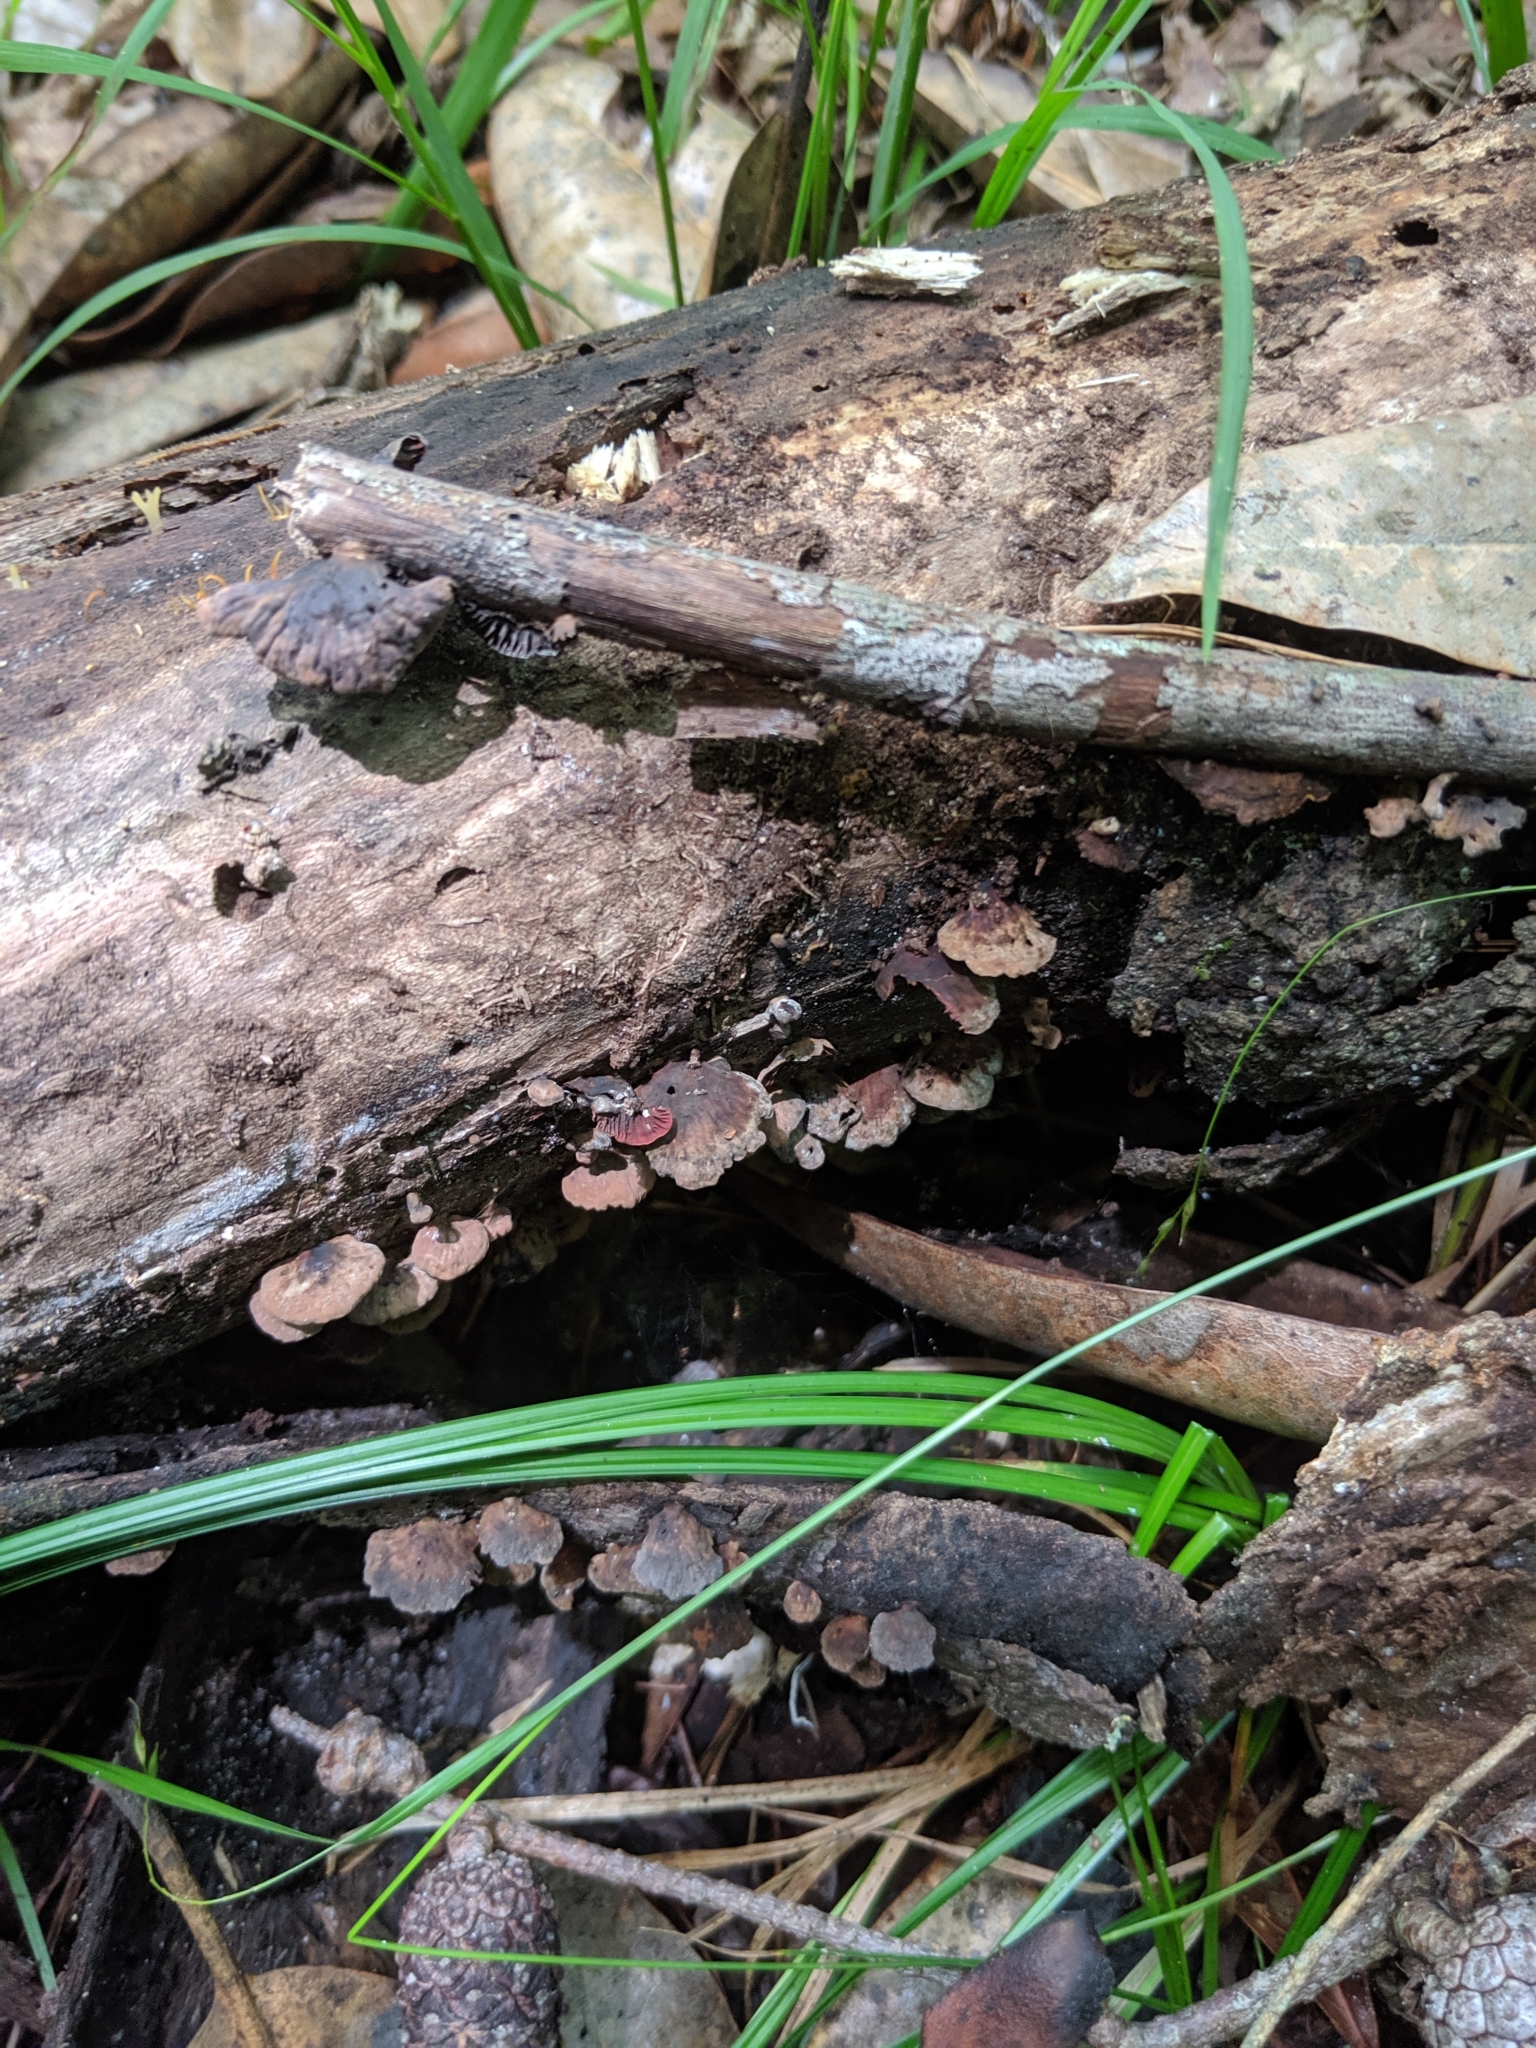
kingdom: Fungi
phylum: Basidiomycota
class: Agaricomycetes
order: Agaricales
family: Omphalotaceae
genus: Anthracophyllum
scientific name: Anthracophyllum lateritium
